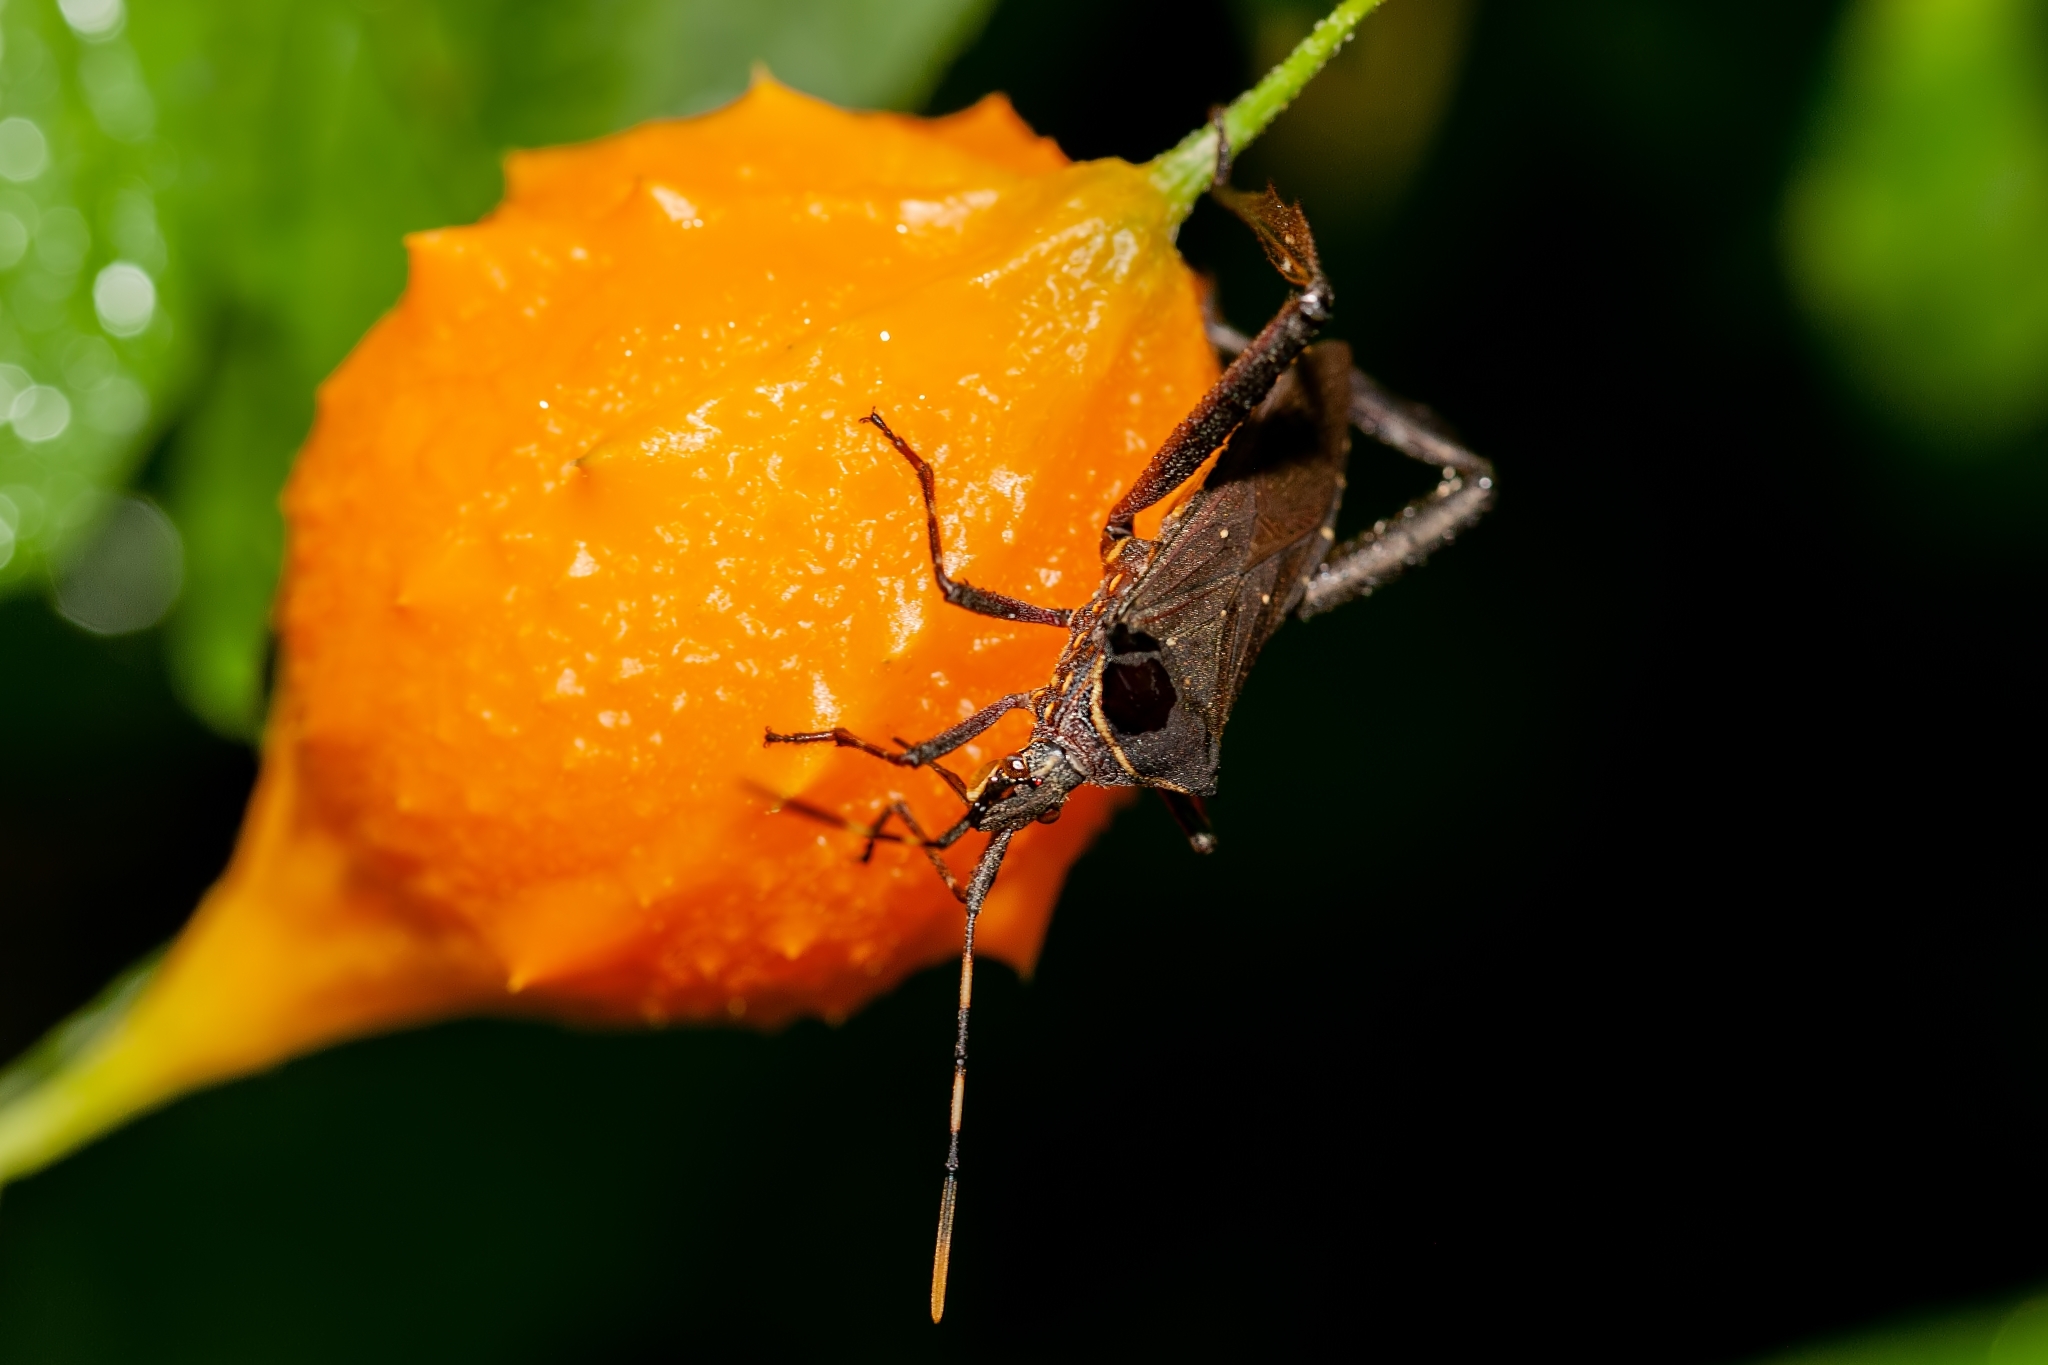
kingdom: Animalia
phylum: Arthropoda
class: Insecta
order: Hemiptera
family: Coreidae
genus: Leptoglossus
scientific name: Leptoglossus gonagra
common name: Citron bug
